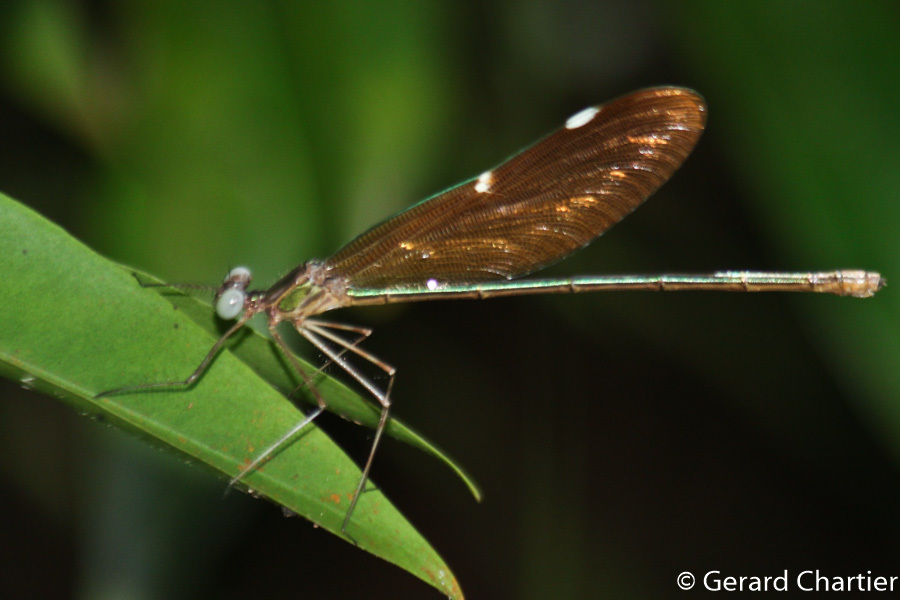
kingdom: Animalia
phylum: Arthropoda
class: Insecta
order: Odonata
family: Calopterygidae
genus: Neurobasis
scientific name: Neurobasis chinensis
